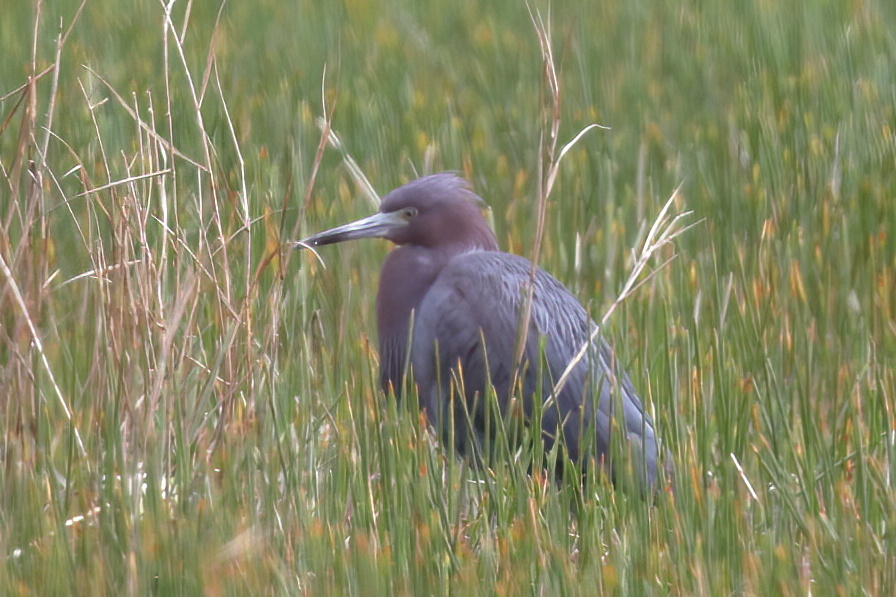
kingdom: Animalia
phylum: Chordata
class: Aves
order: Pelecaniformes
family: Ardeidae
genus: Egretta
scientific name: Egretta caerulea
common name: Little blue heron
